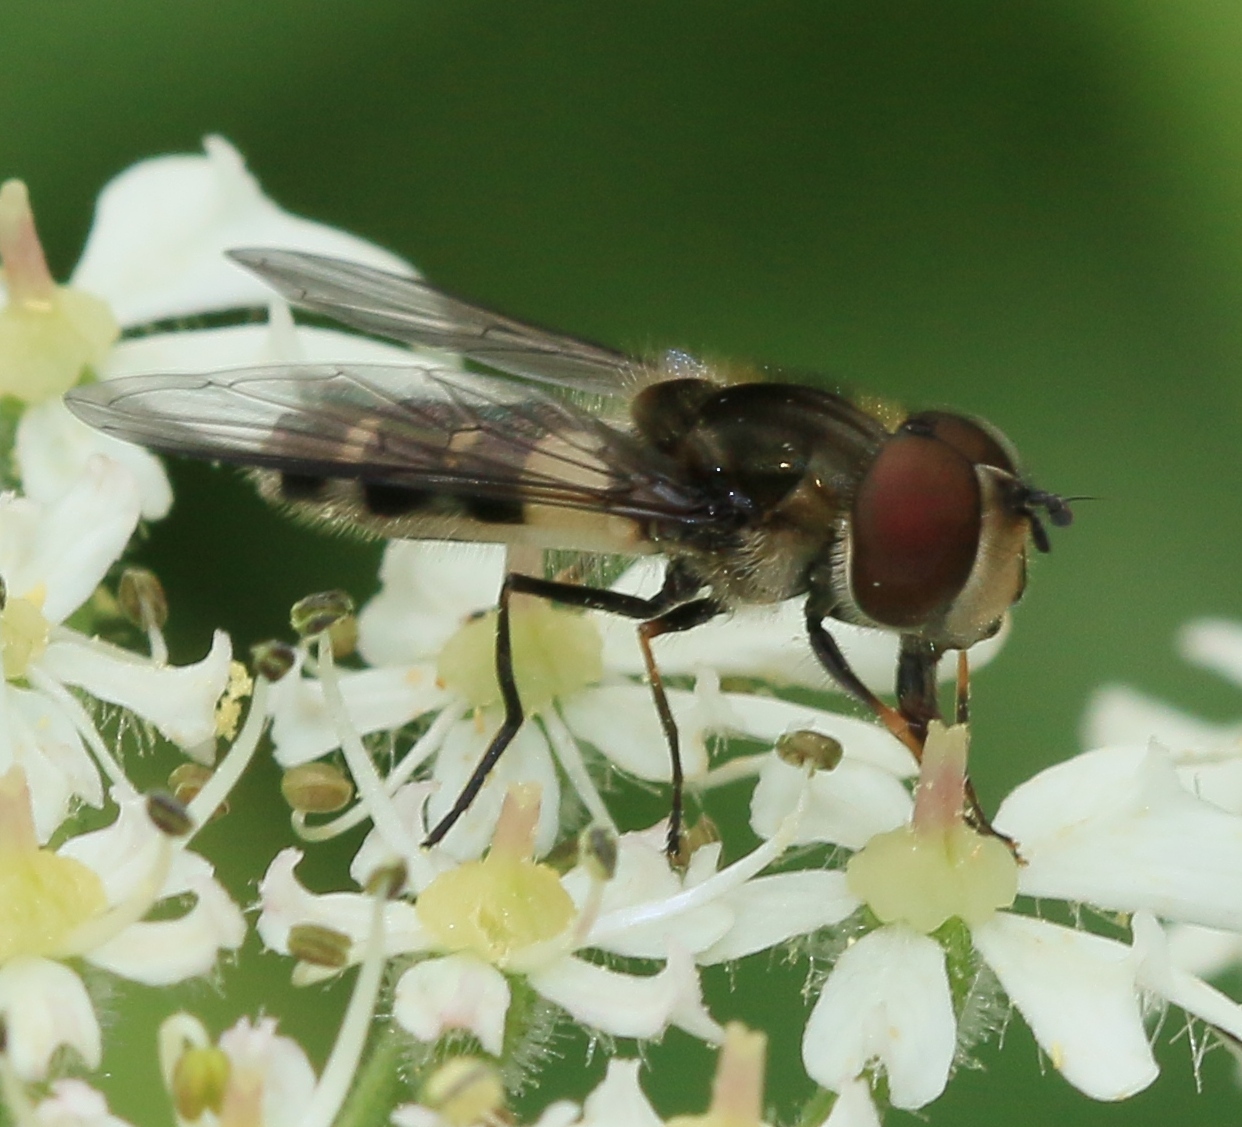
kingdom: Animalia
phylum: Arthropoda
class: Insecta
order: Diptera
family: Syrphidae
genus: Leucozona
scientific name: Leucozona laternaria
